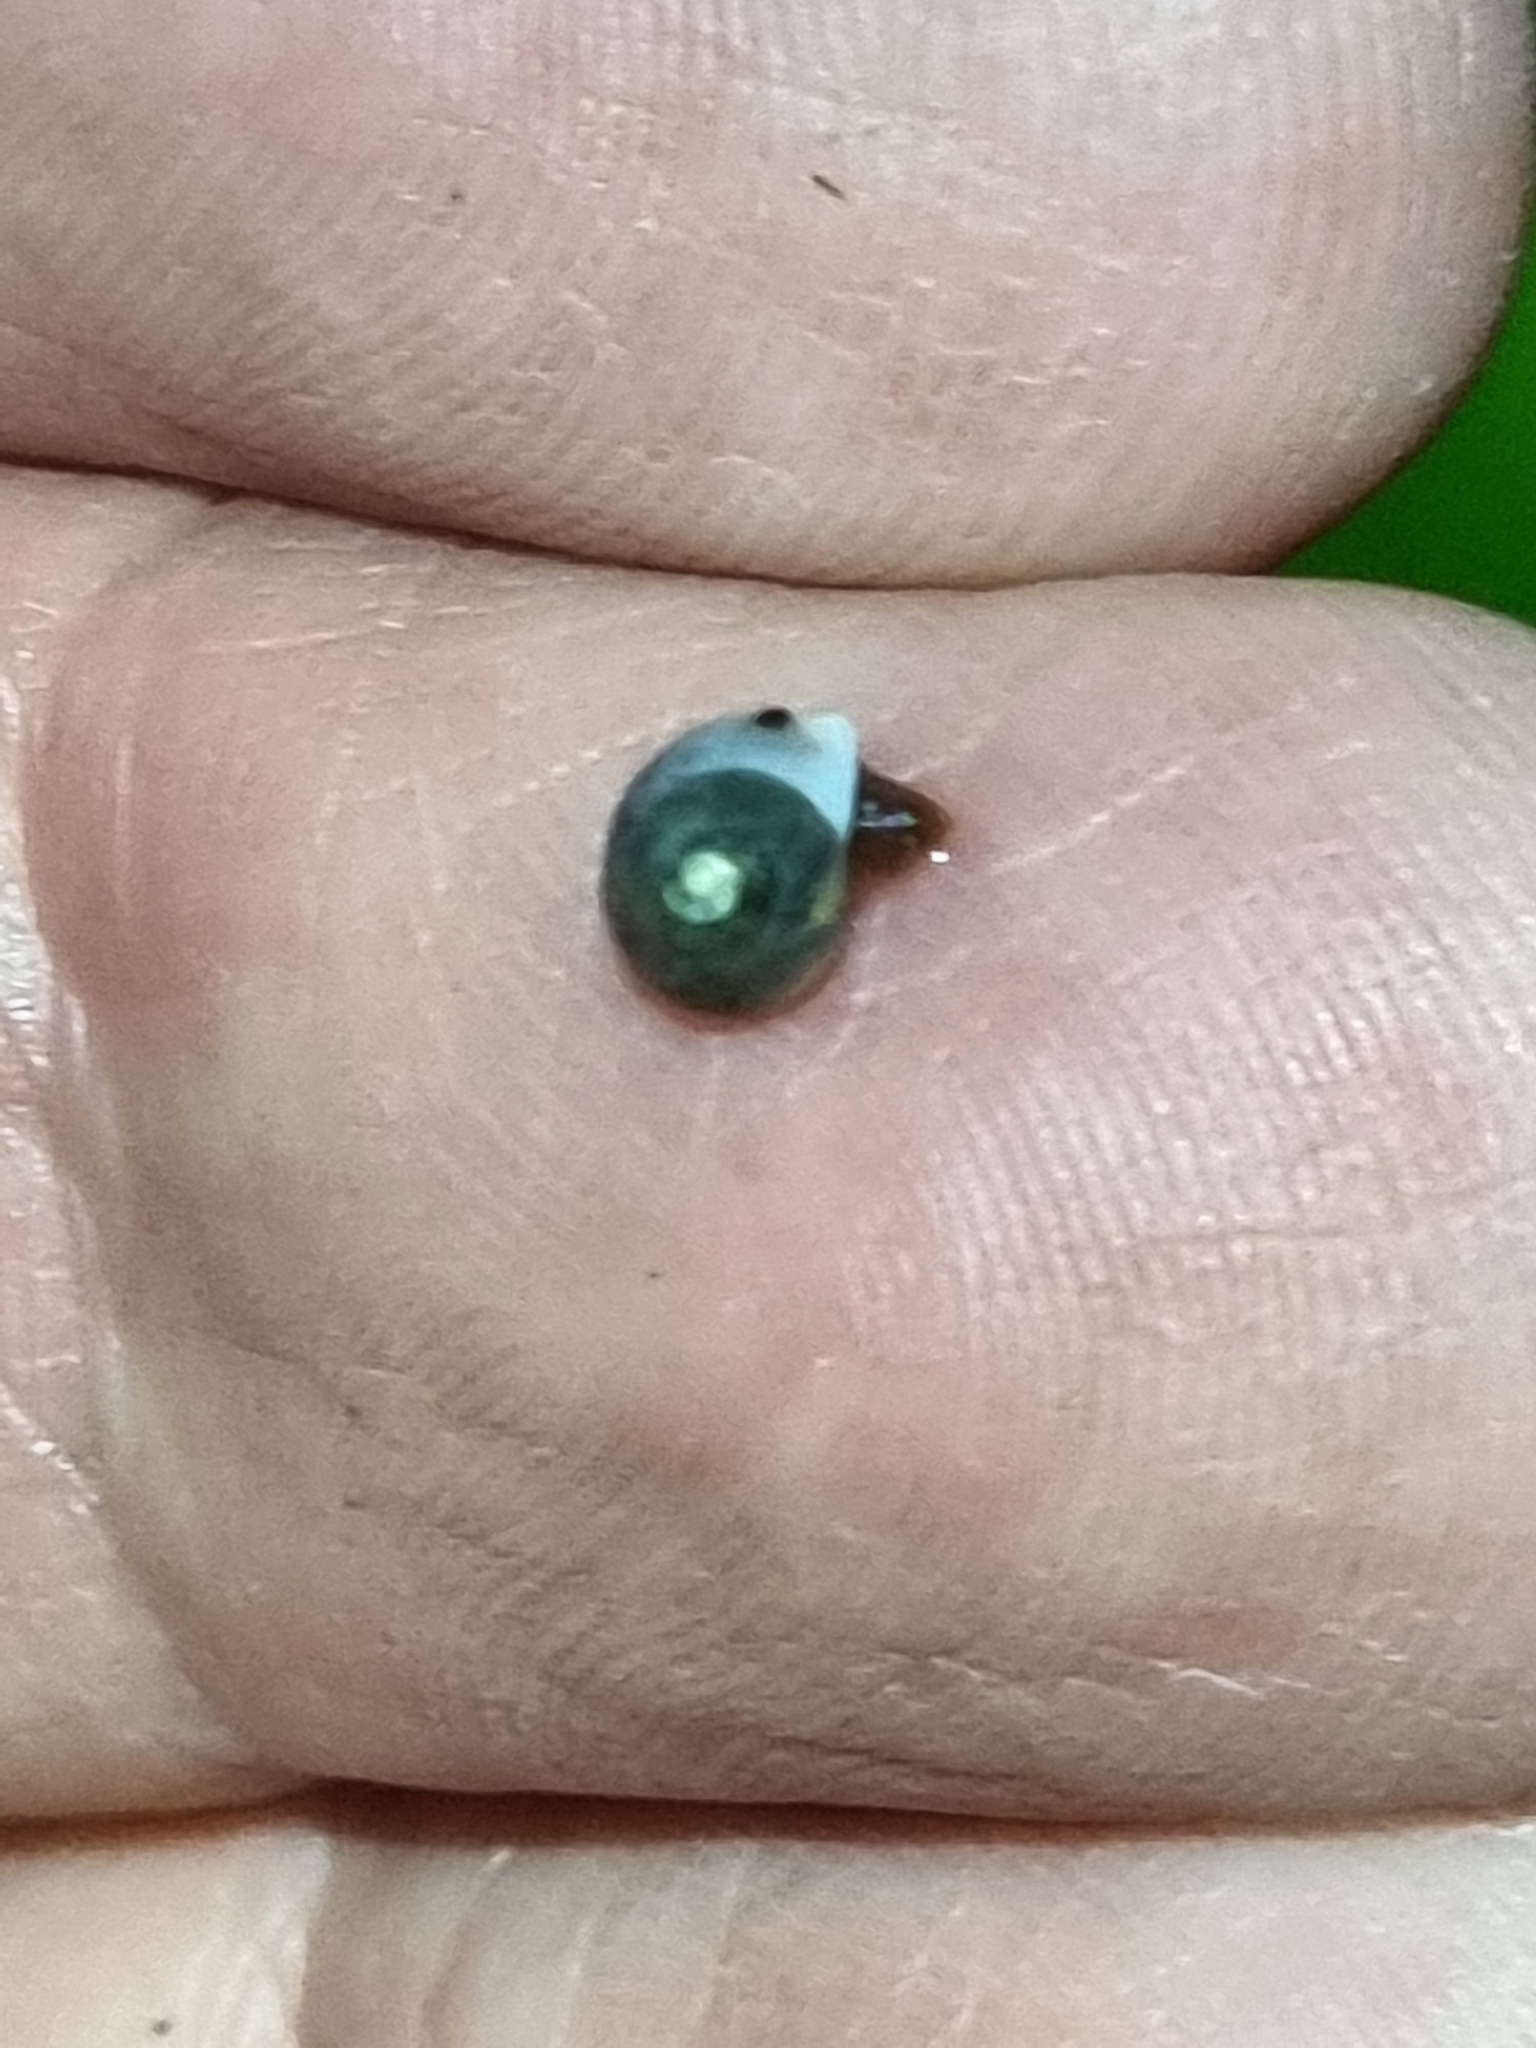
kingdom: Animalia
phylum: Mollusca
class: Gastropoda
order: Cycloneritida
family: Helicinidae
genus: Pleuropoma
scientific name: Pleuropoma draytonensis
